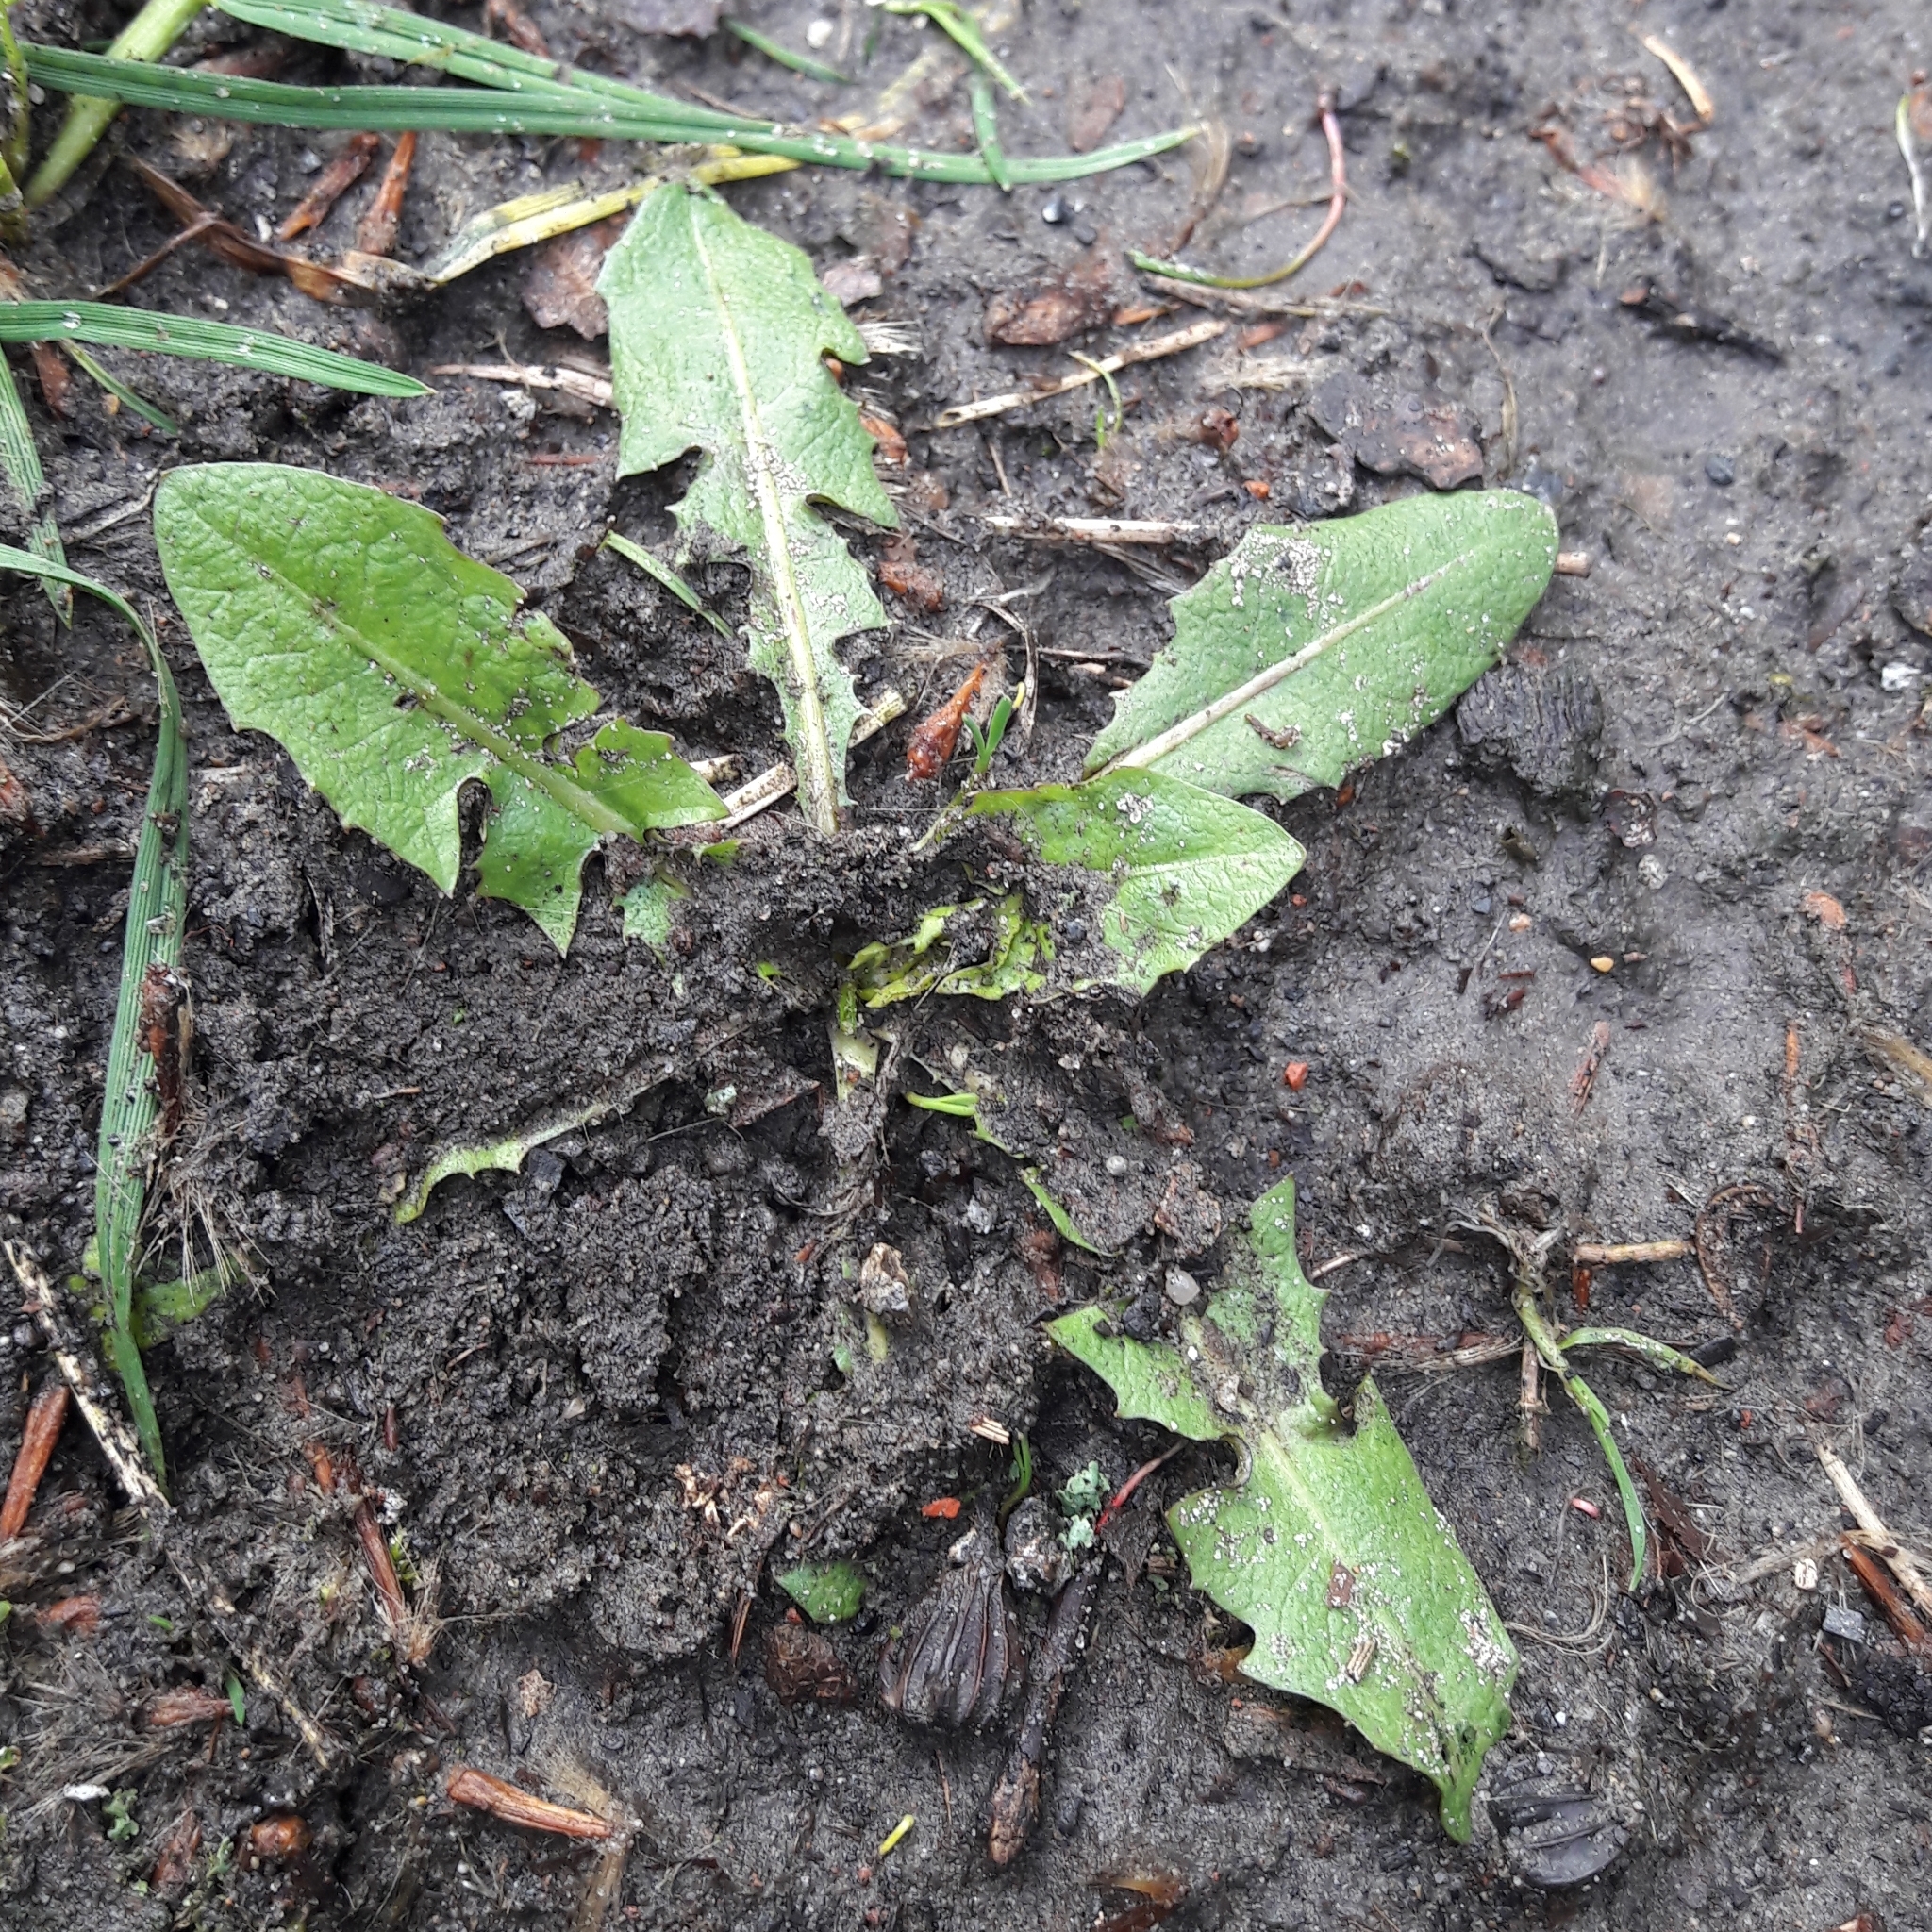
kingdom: Plantae
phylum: Tracheophyta
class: Magnoliopsida
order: Asterales
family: Asteraceae
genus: Taraxacum
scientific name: Taraxacum officinale
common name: Common dandelion
